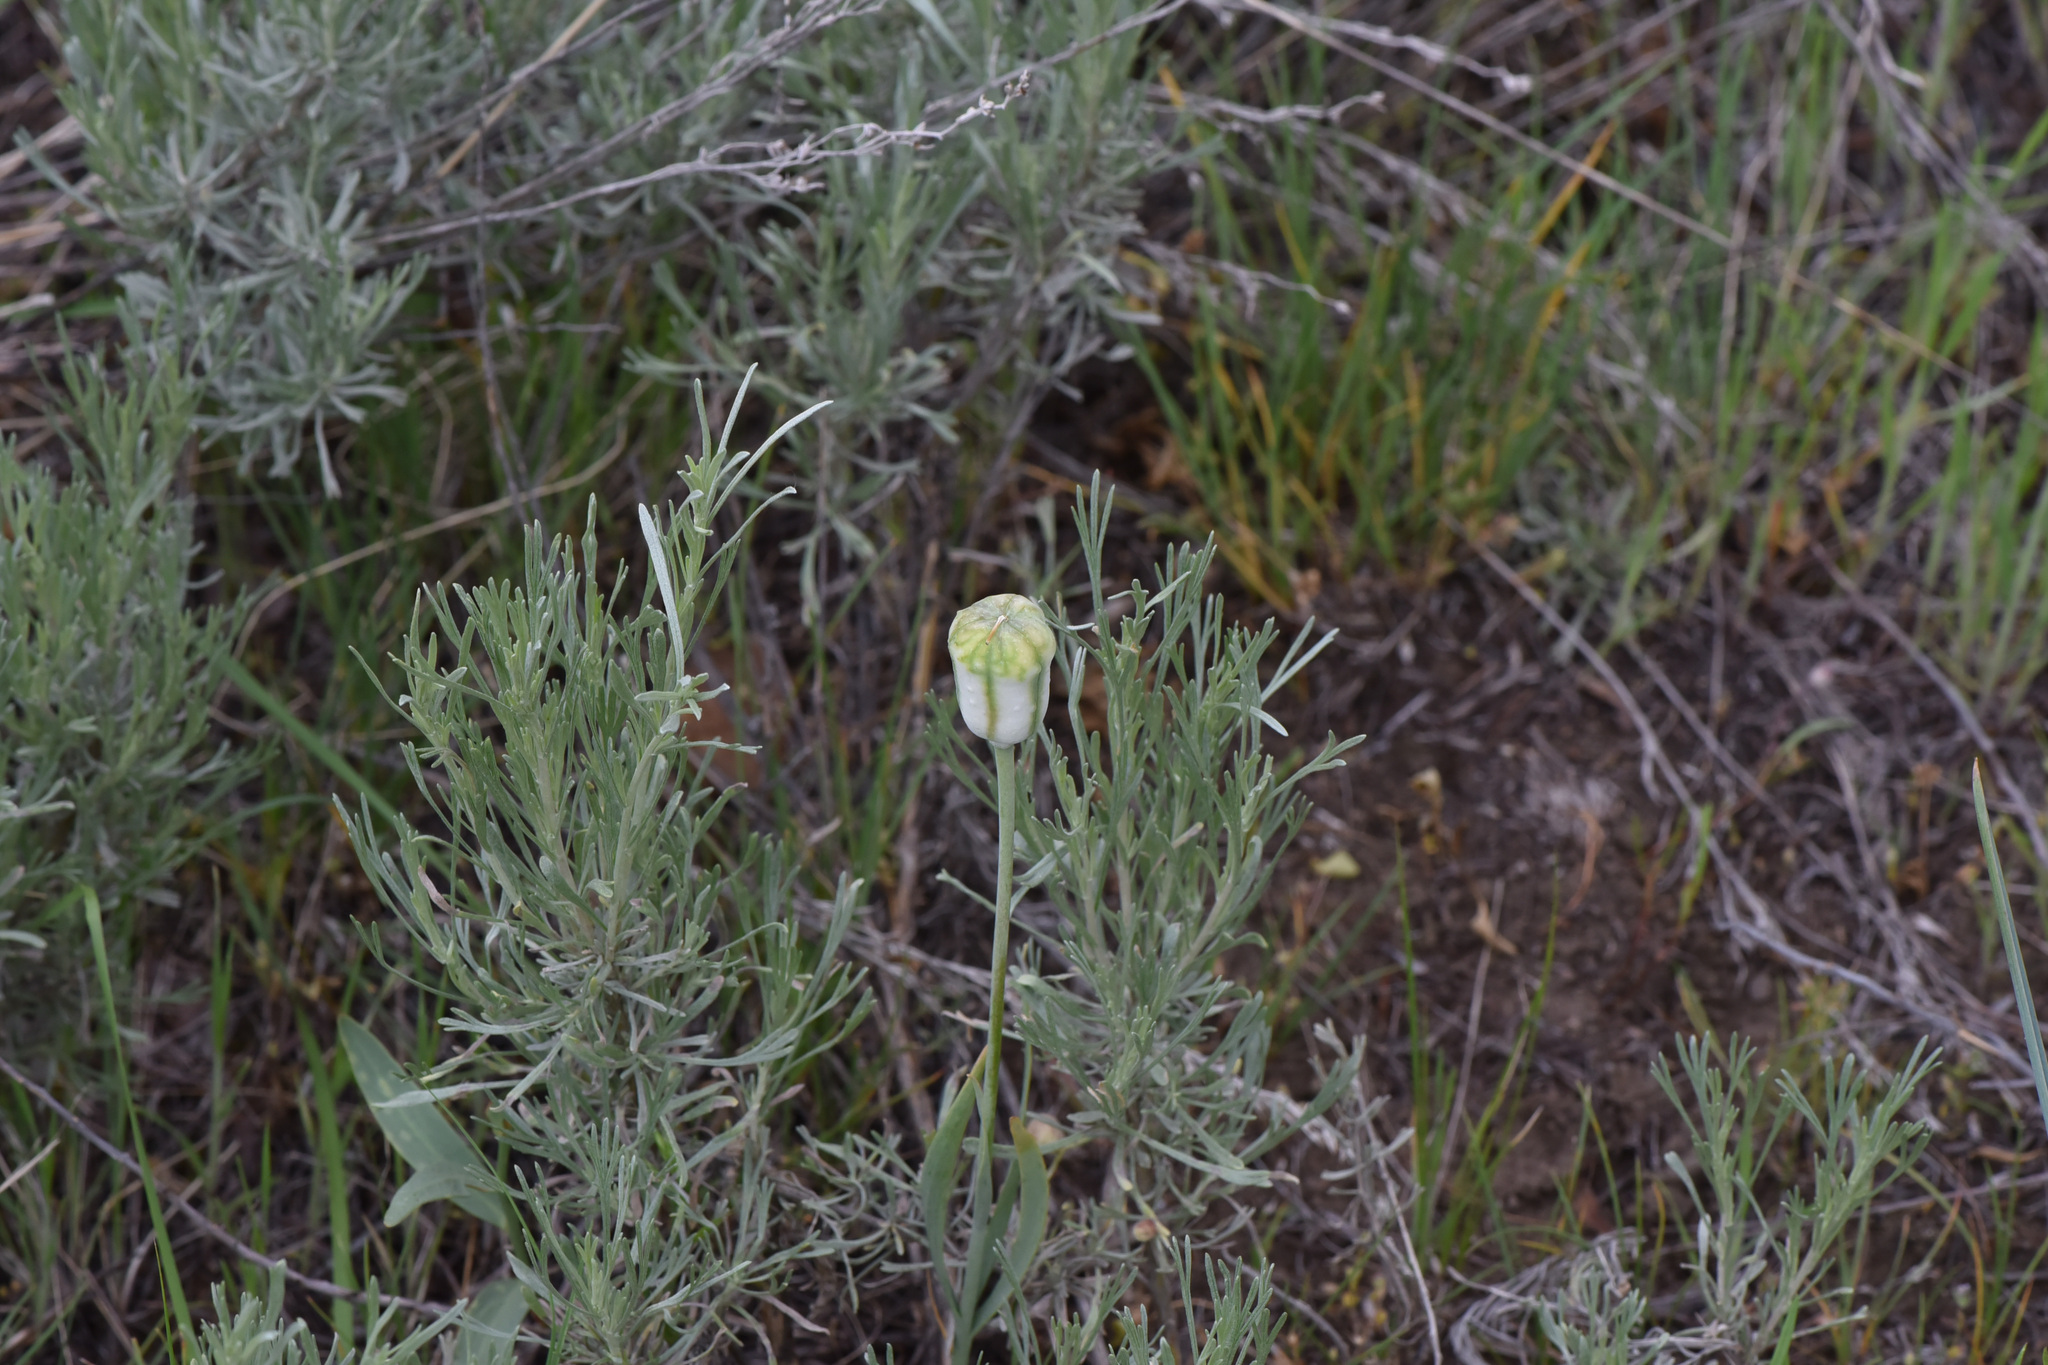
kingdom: Plantae
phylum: Tracheophyta
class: Liliopsida
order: Liliales
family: Liliaceae
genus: Fritillaria
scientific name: Fritillaria pudica
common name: Yellow fritillary
